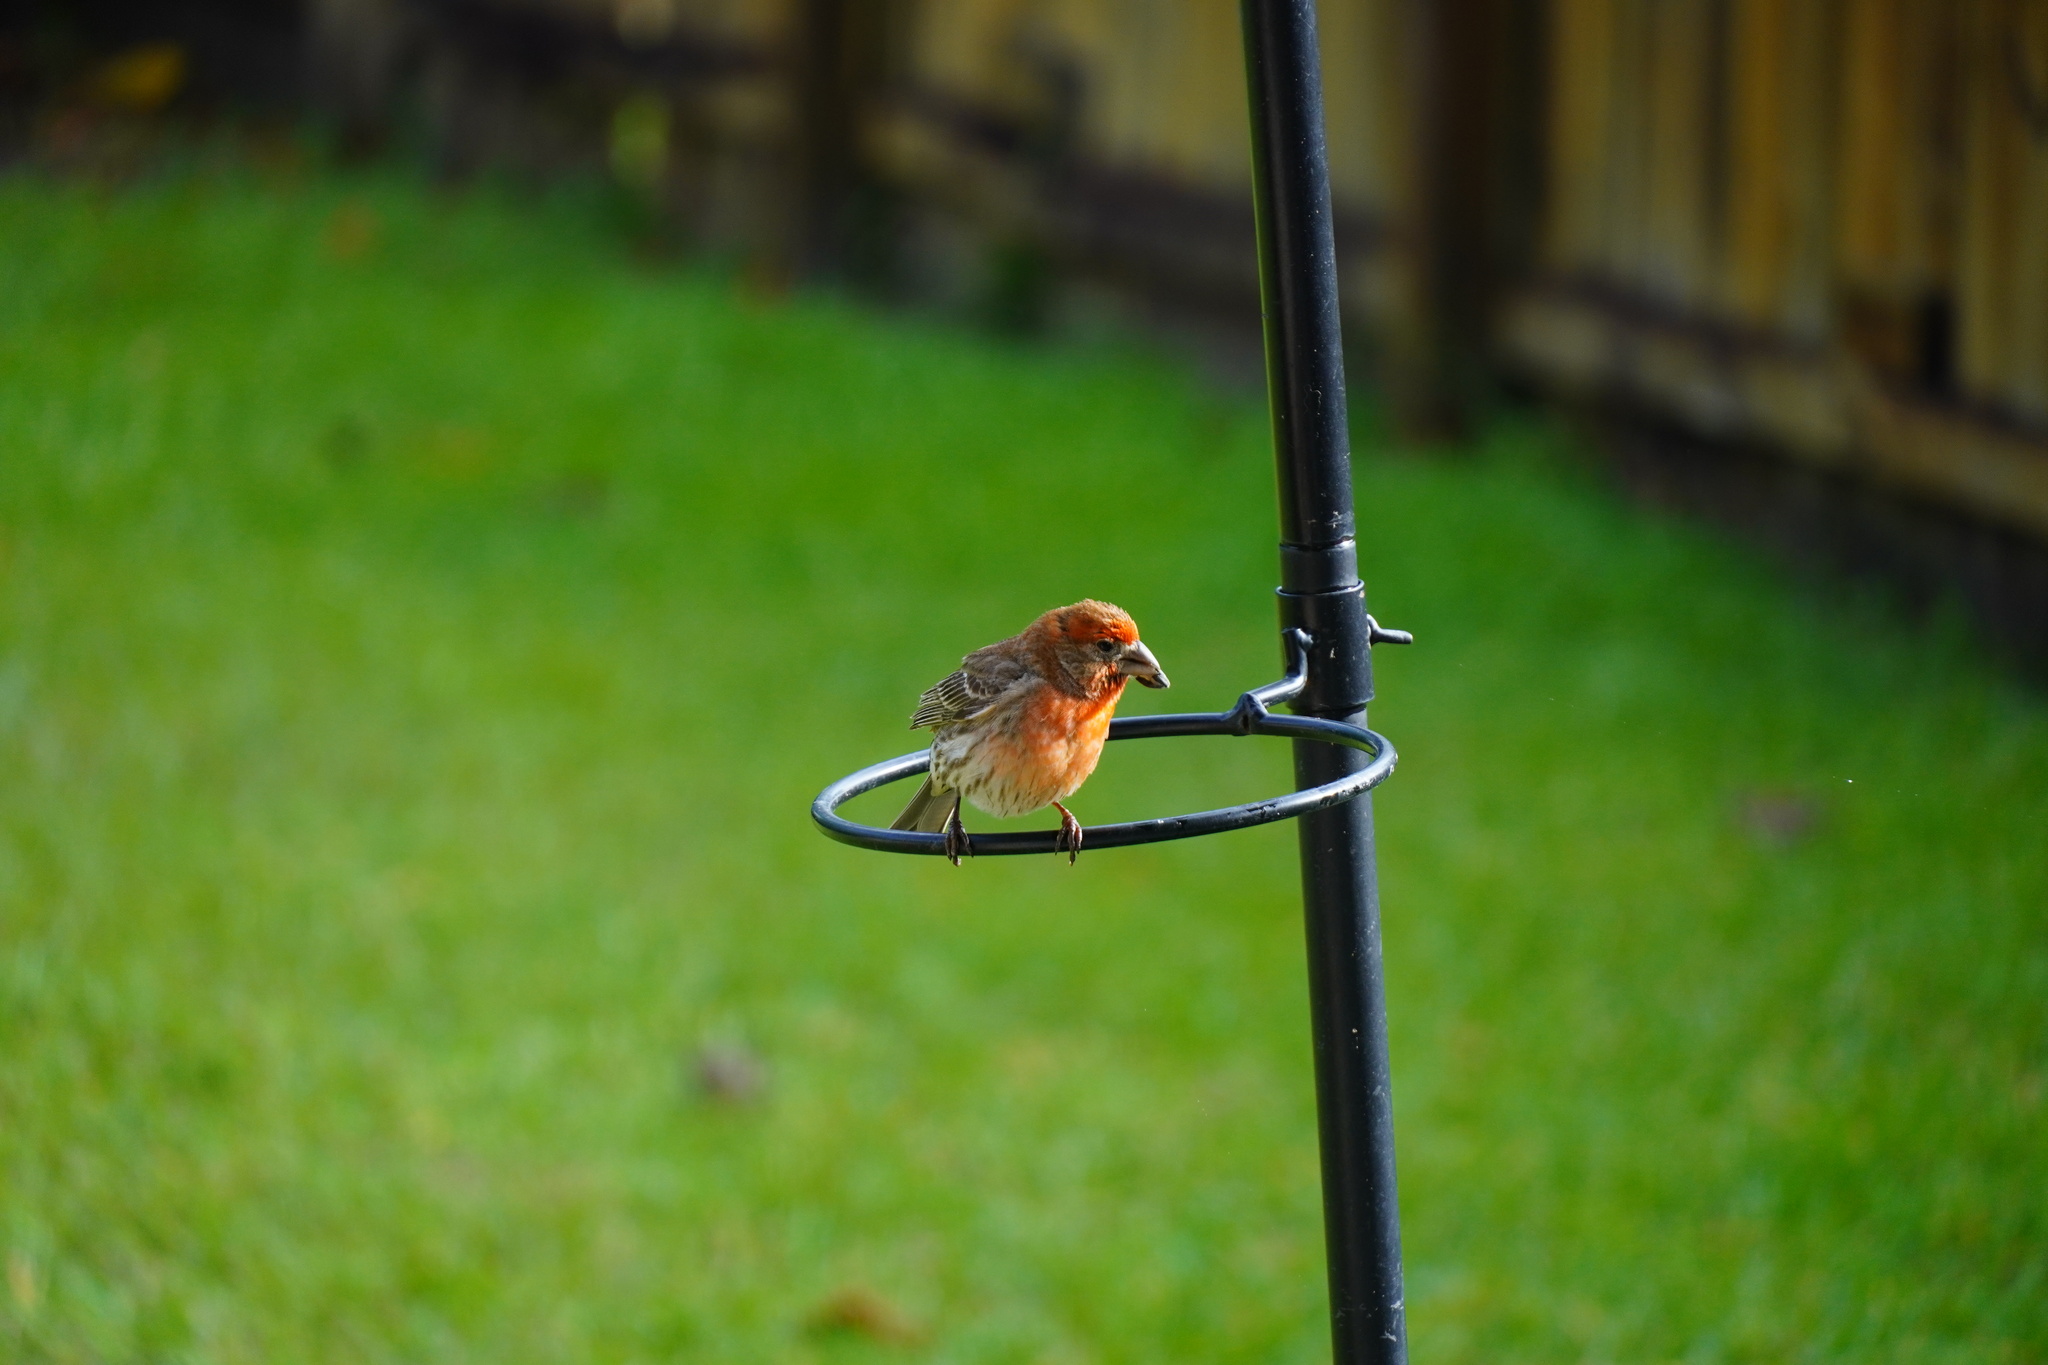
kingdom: Animalia
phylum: Chordata
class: Aves
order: Passeriformes
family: Fringillidae
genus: Haemorhous
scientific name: Haemorhous mexicanus
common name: House finch
